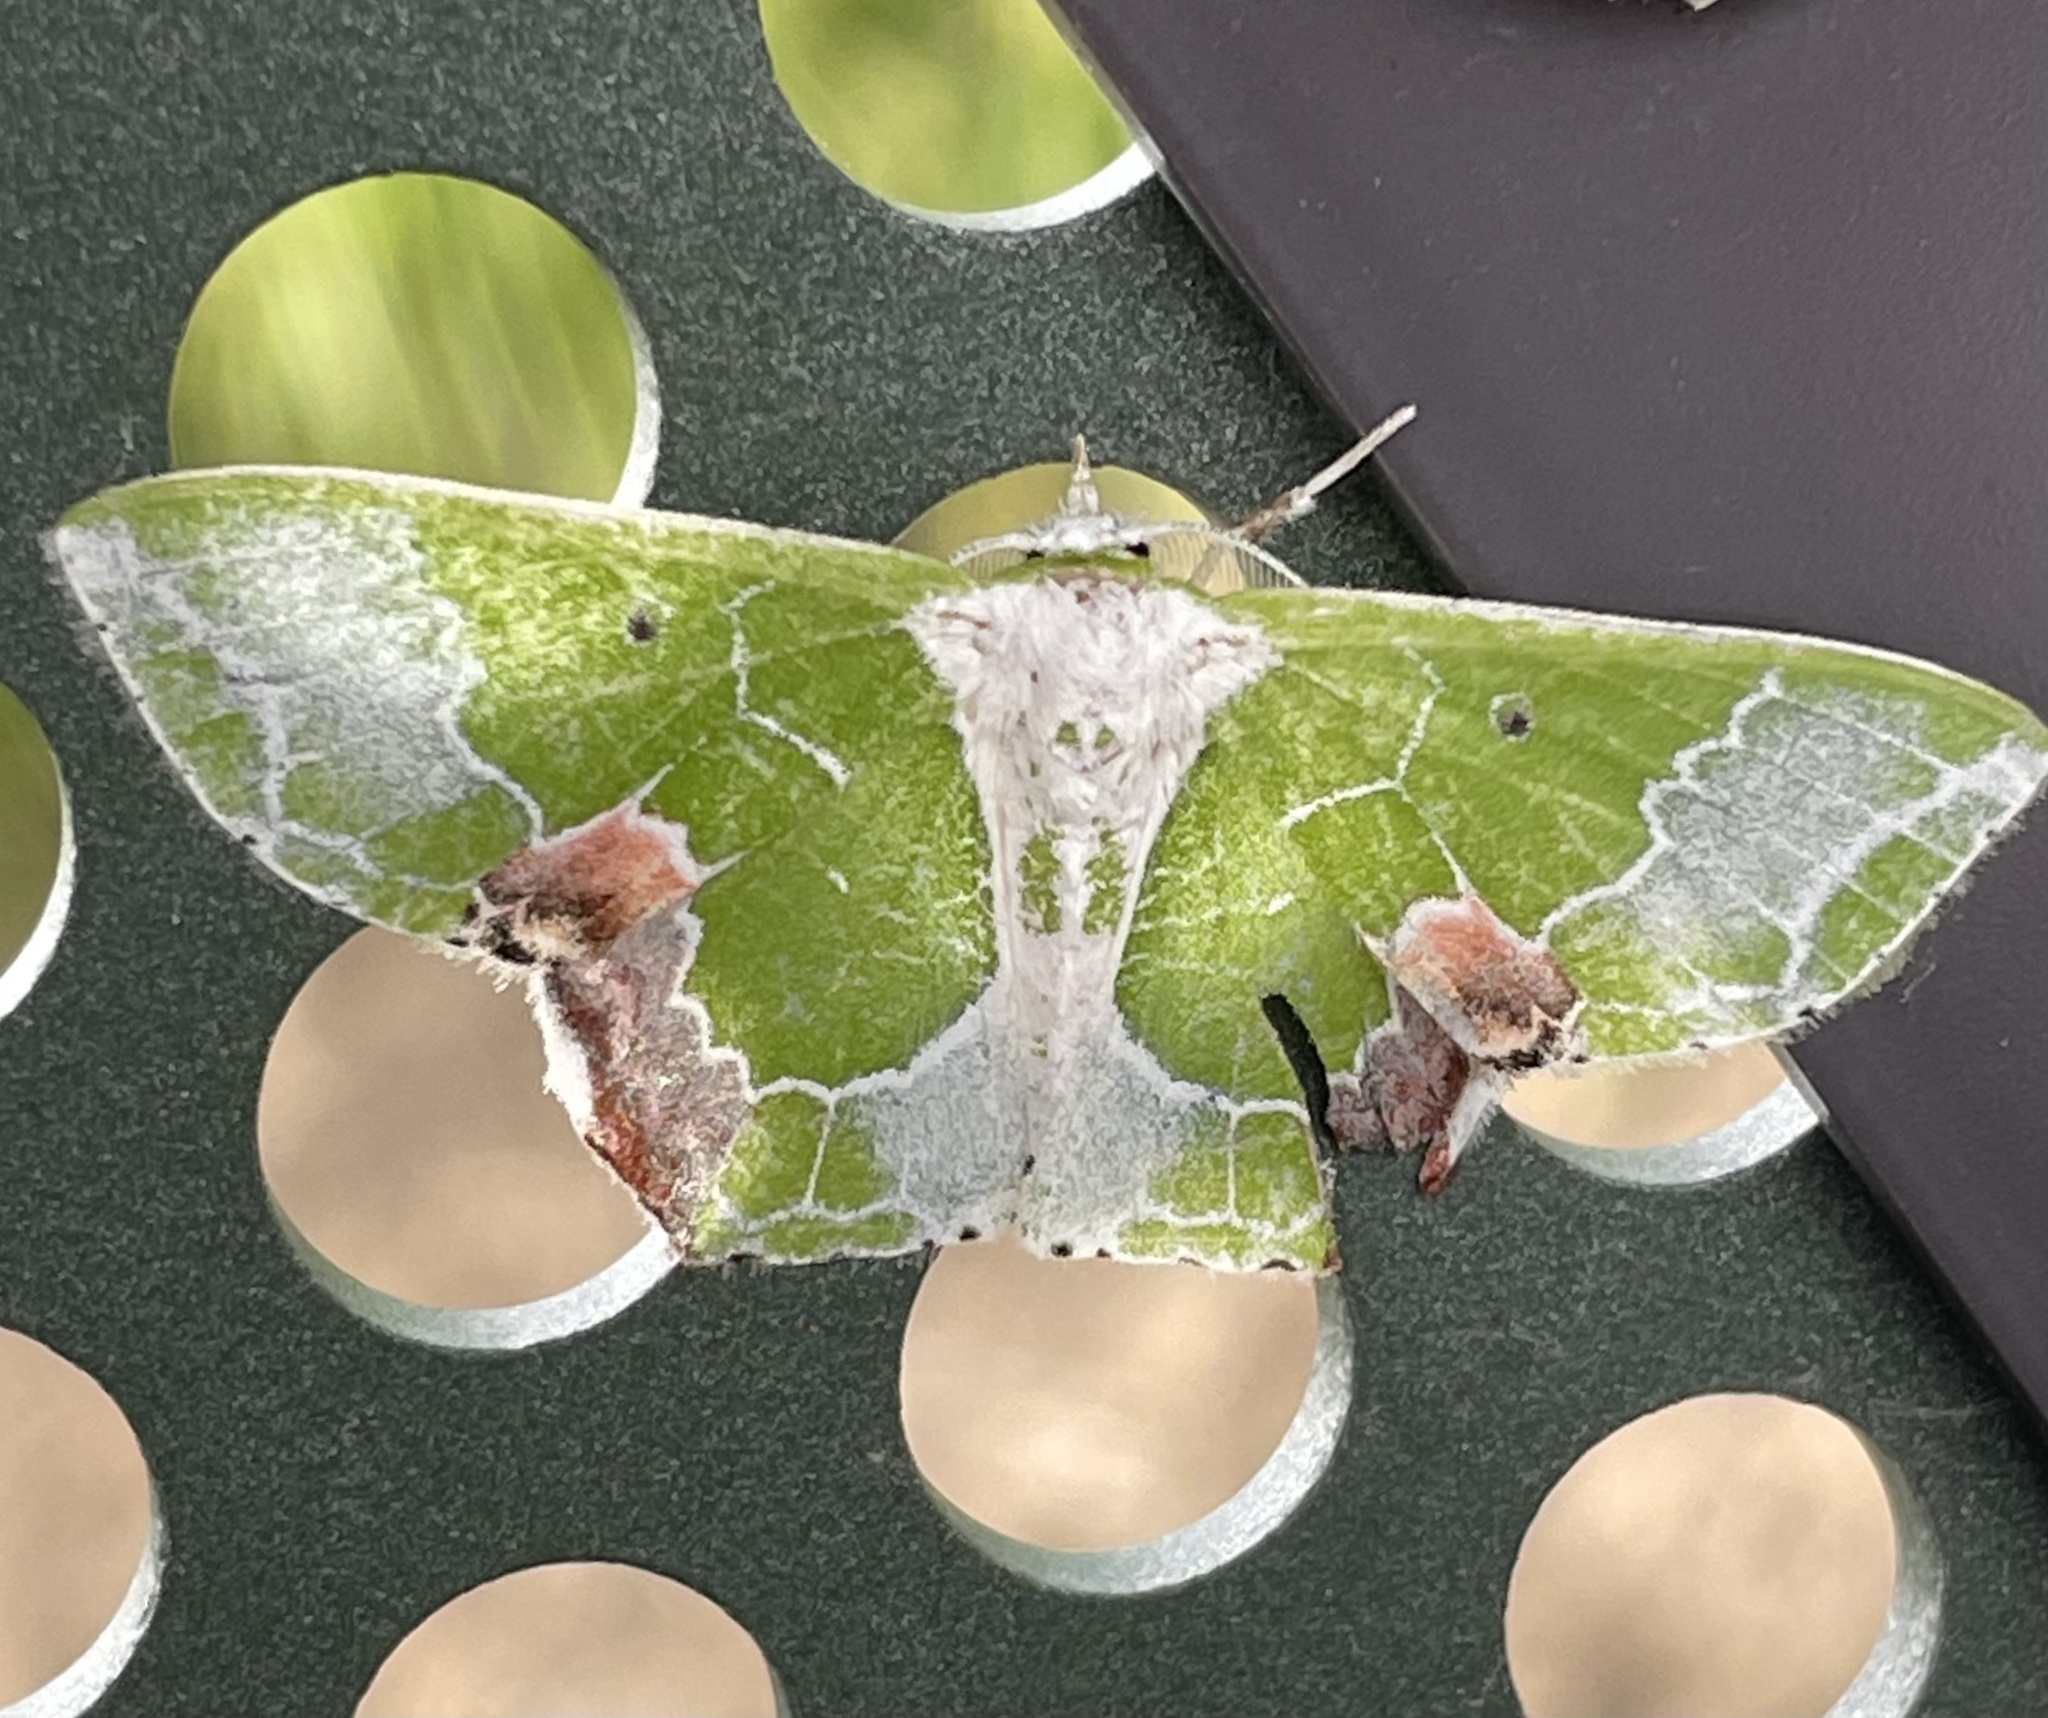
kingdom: Animalia
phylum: Arthropoda
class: Insecta
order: Lepidoptera
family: Geometridae
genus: Protuliocnemis
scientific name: Protuliocnemis partita
